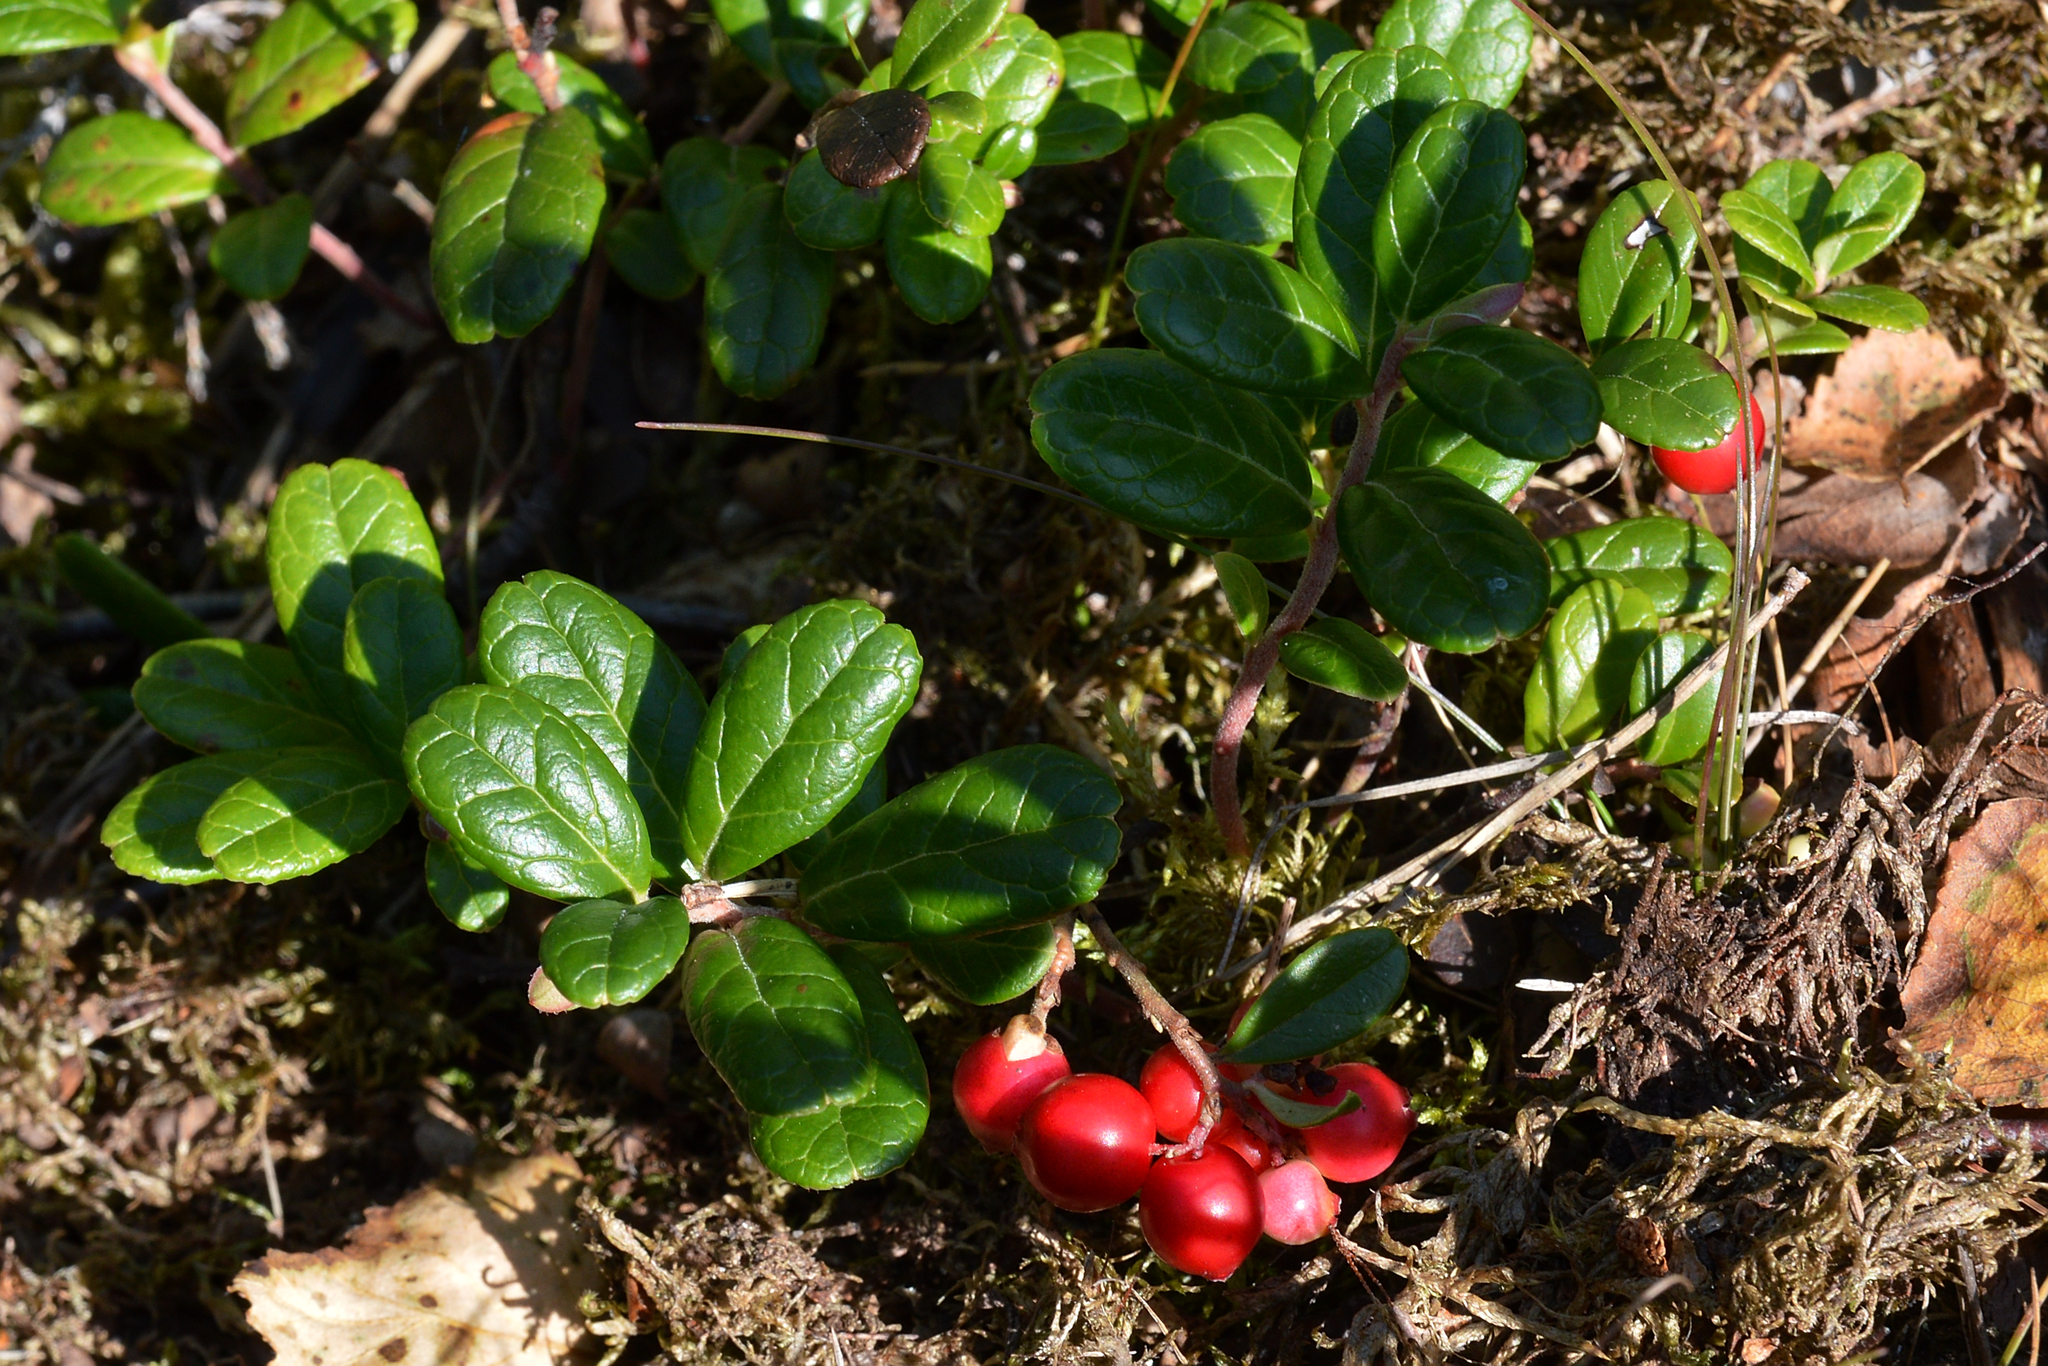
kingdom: Plantae
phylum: Tracheophyta
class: Magnoliopsida
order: Ericales
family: Ericaceae
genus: Vaccinium
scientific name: Vaccinium vitis-idaea
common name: Cowberry
